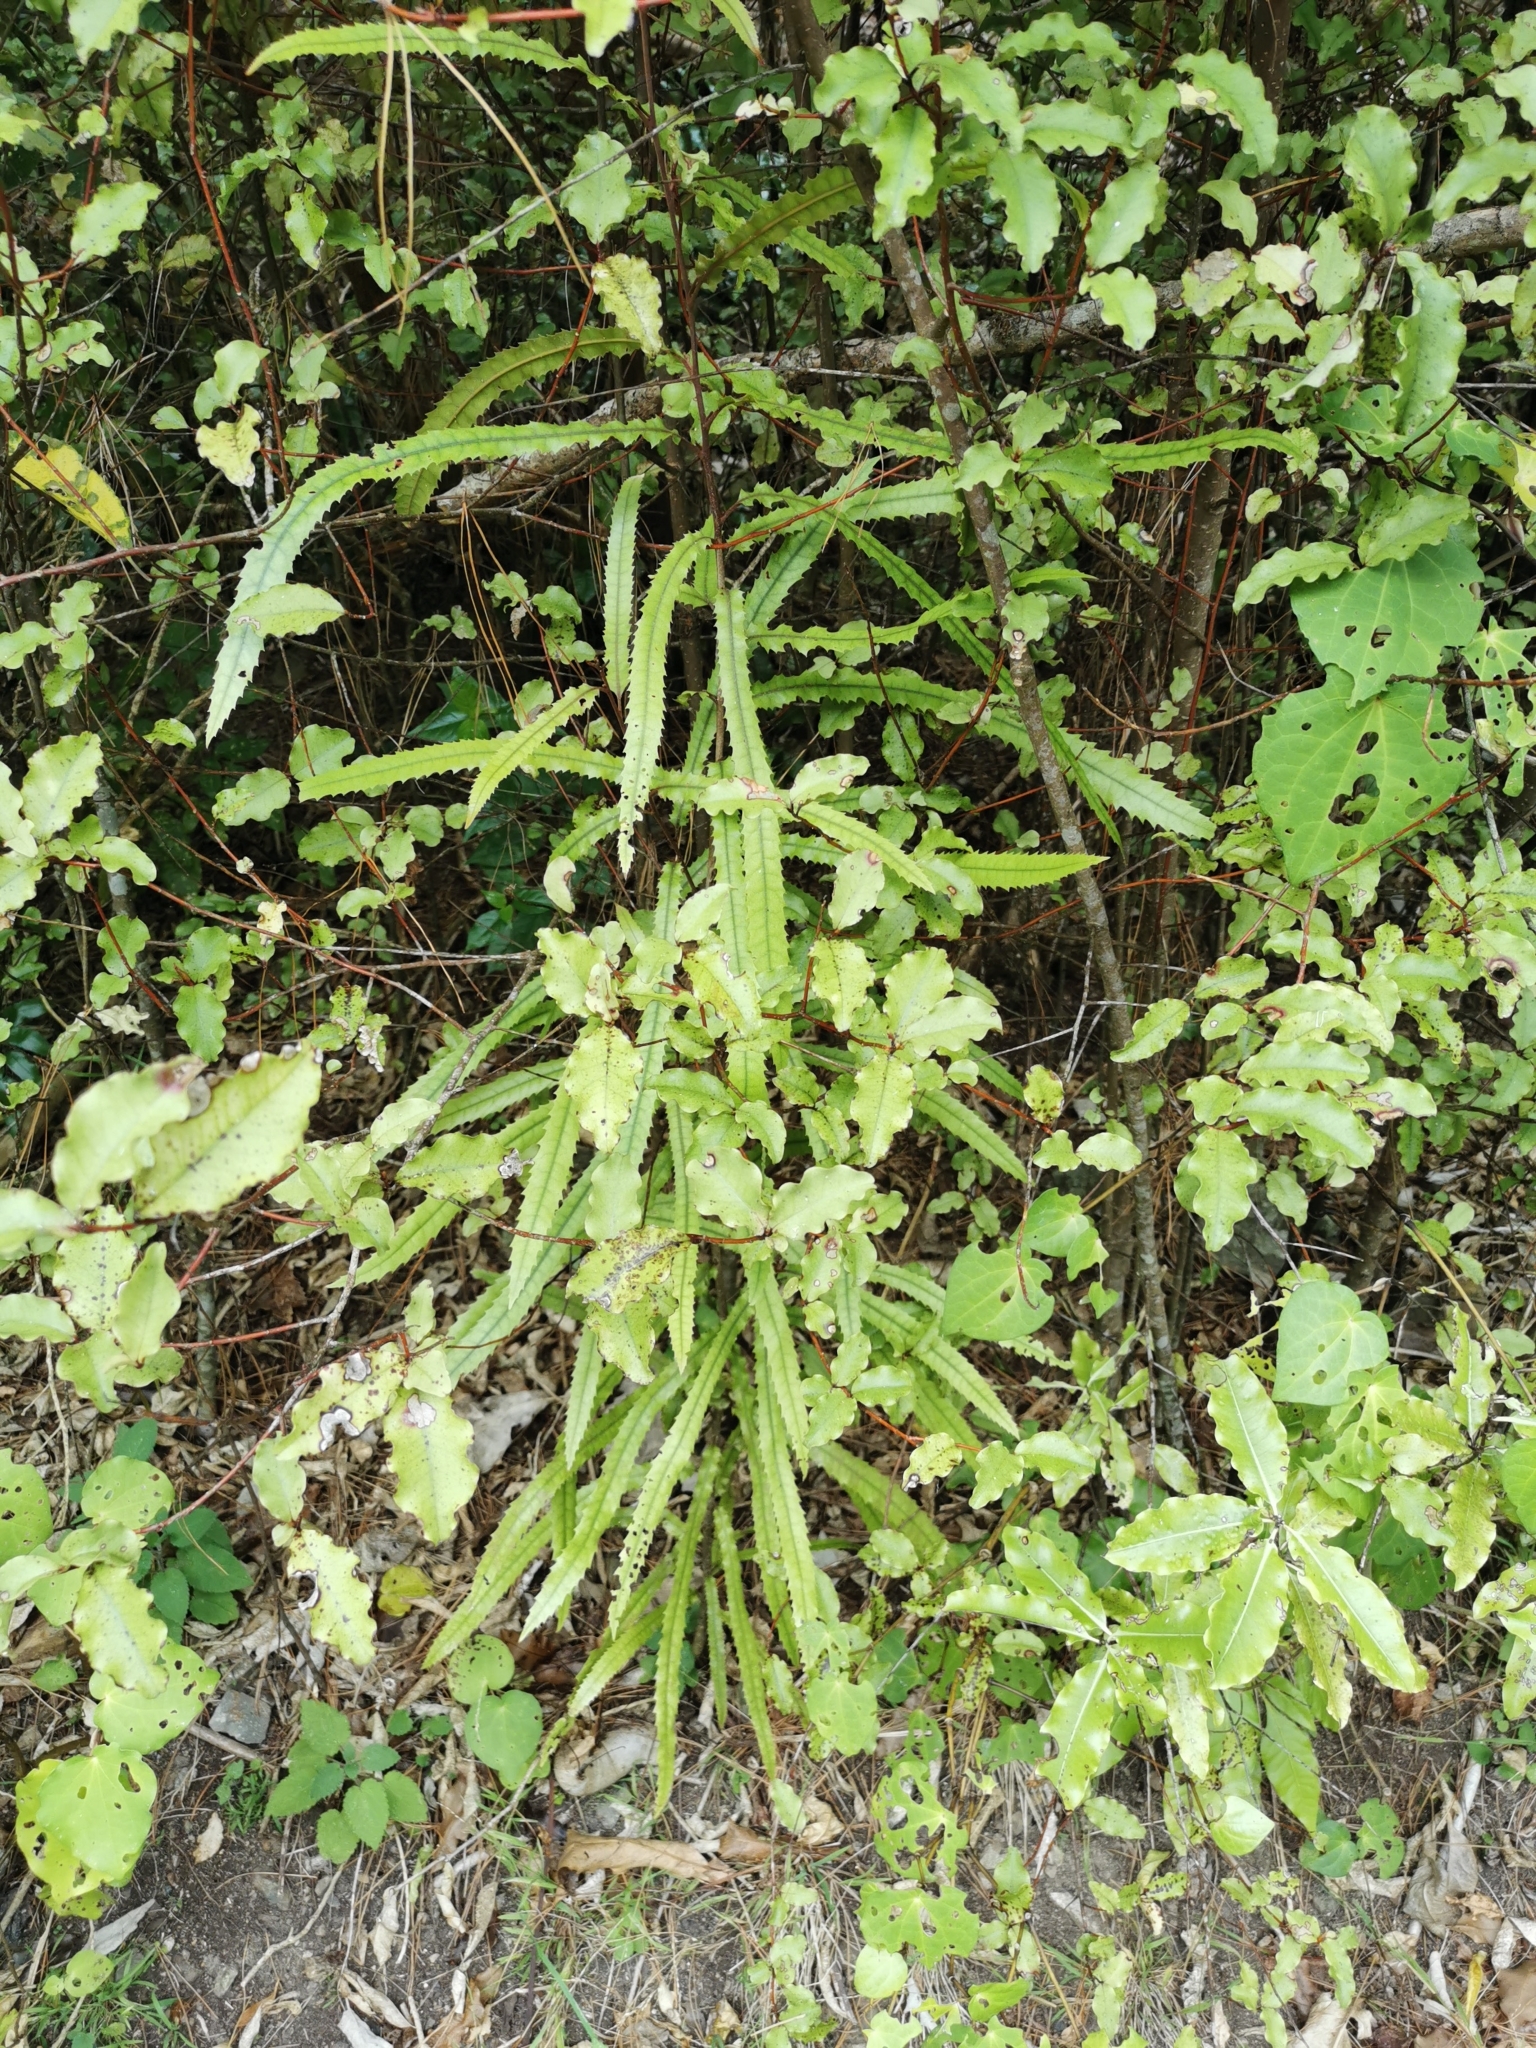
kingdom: Plantae
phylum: Tracheophyta
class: Magnoliopsida
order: Proteales
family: Proteaceae
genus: Knightia
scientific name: Knightia excelsa
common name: New zealand-honeysuckle
